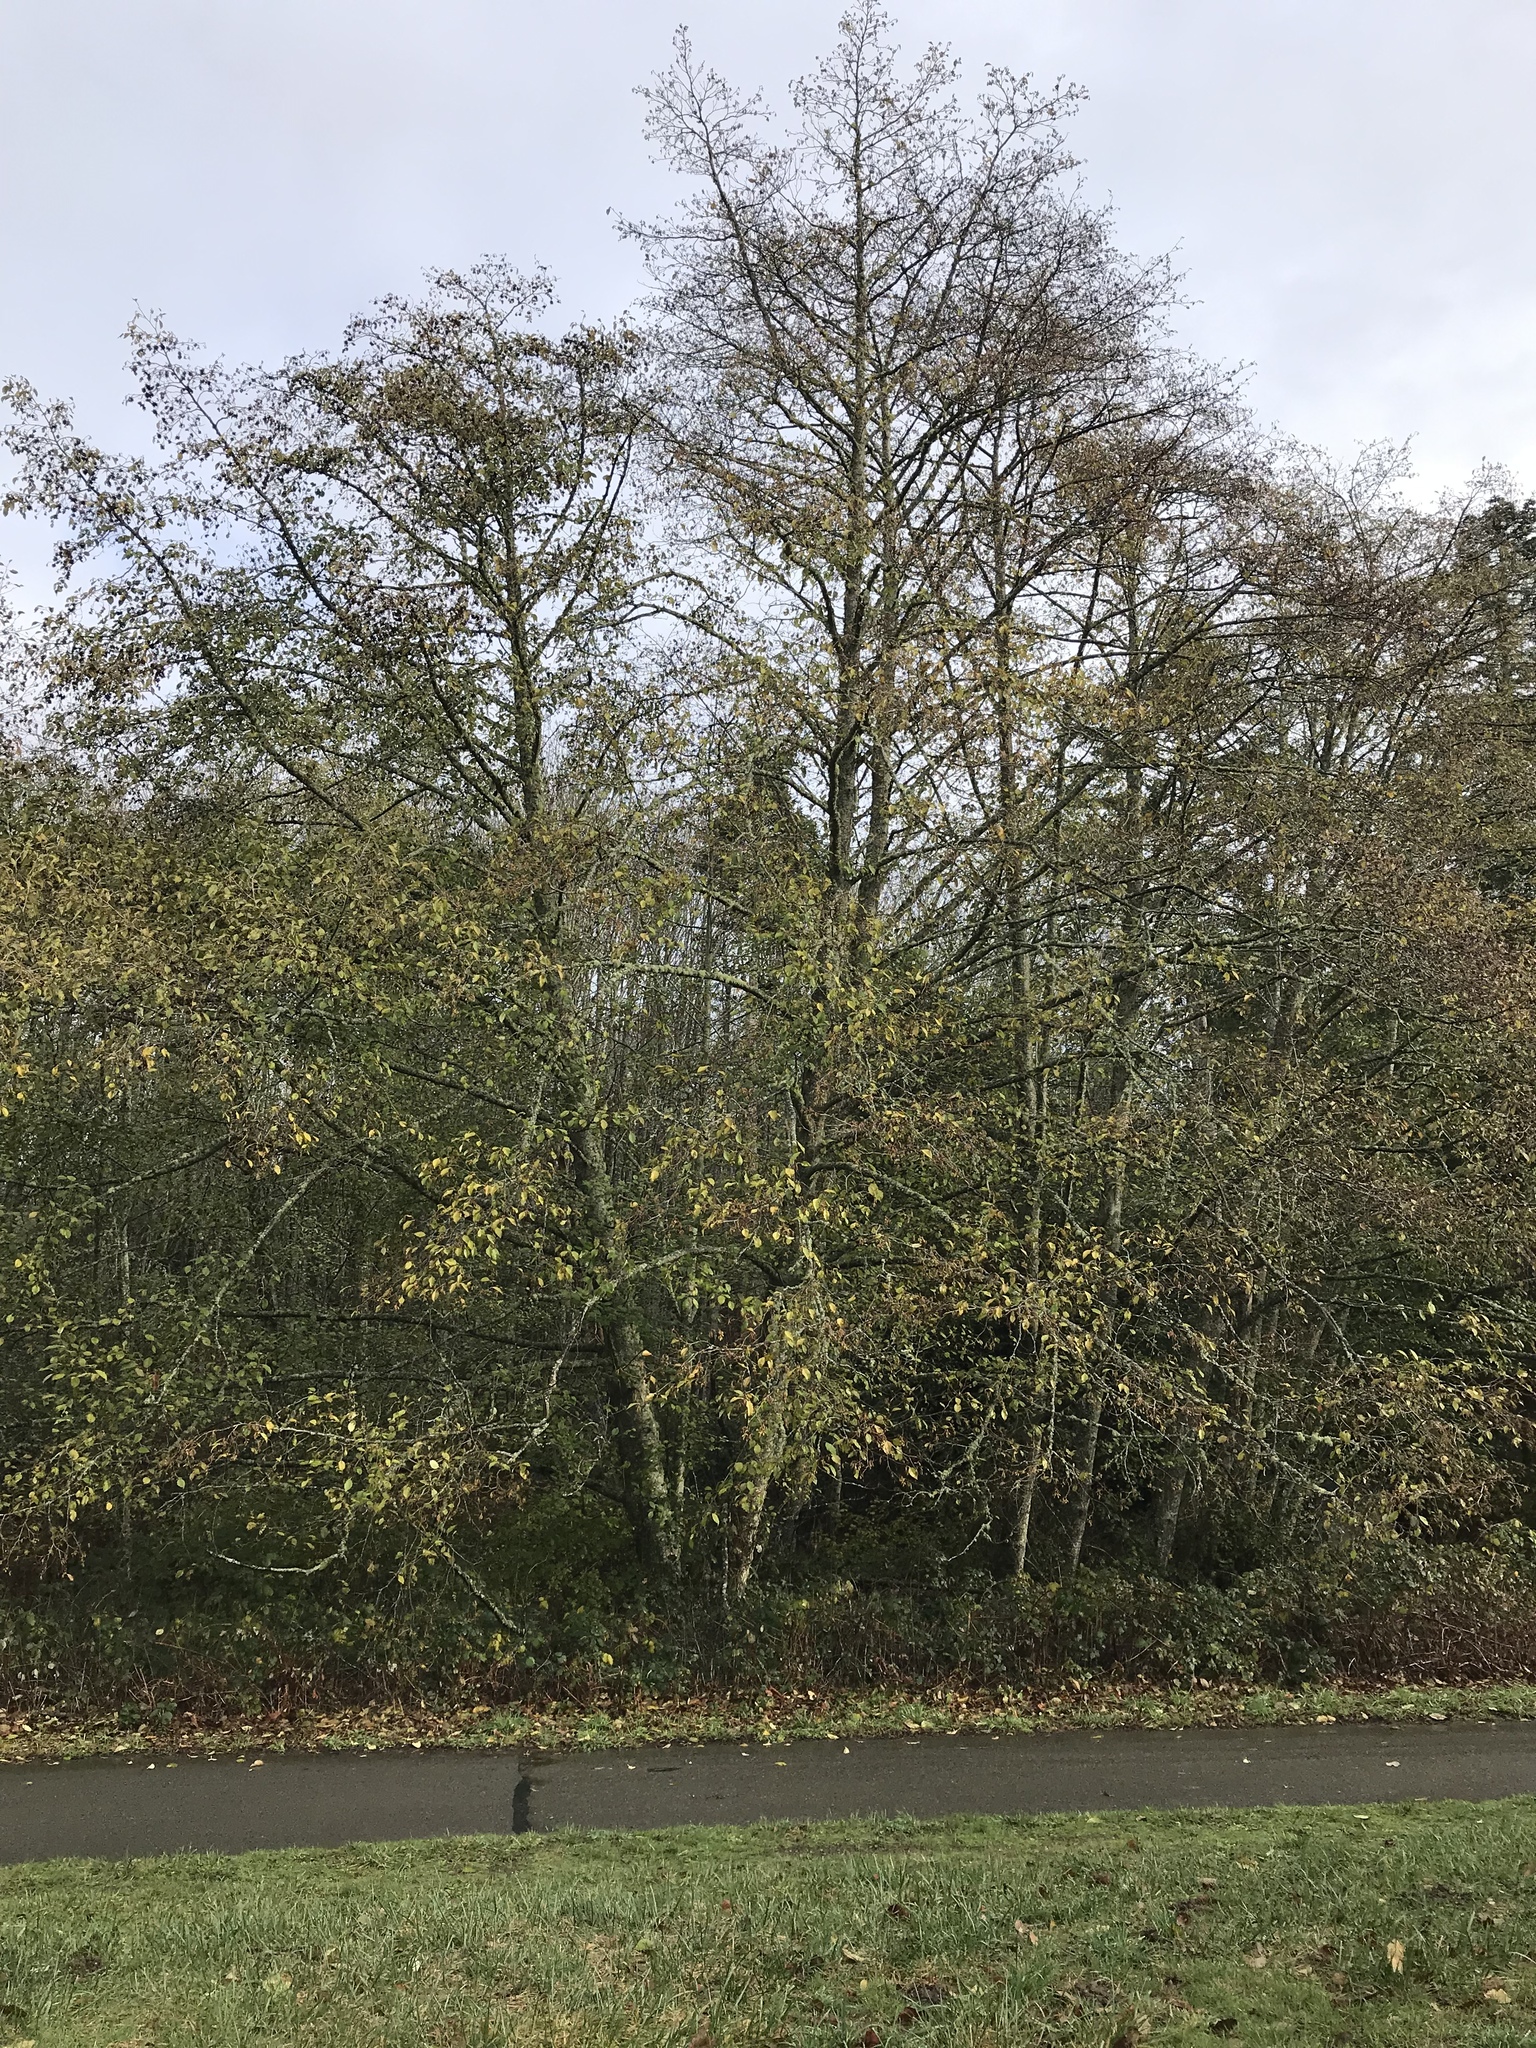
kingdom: Plantae
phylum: Tracheophyta
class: Magnoliopsida
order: Fagales
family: Betulaceae
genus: Alnus
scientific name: Alnus rubra
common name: Red alder
